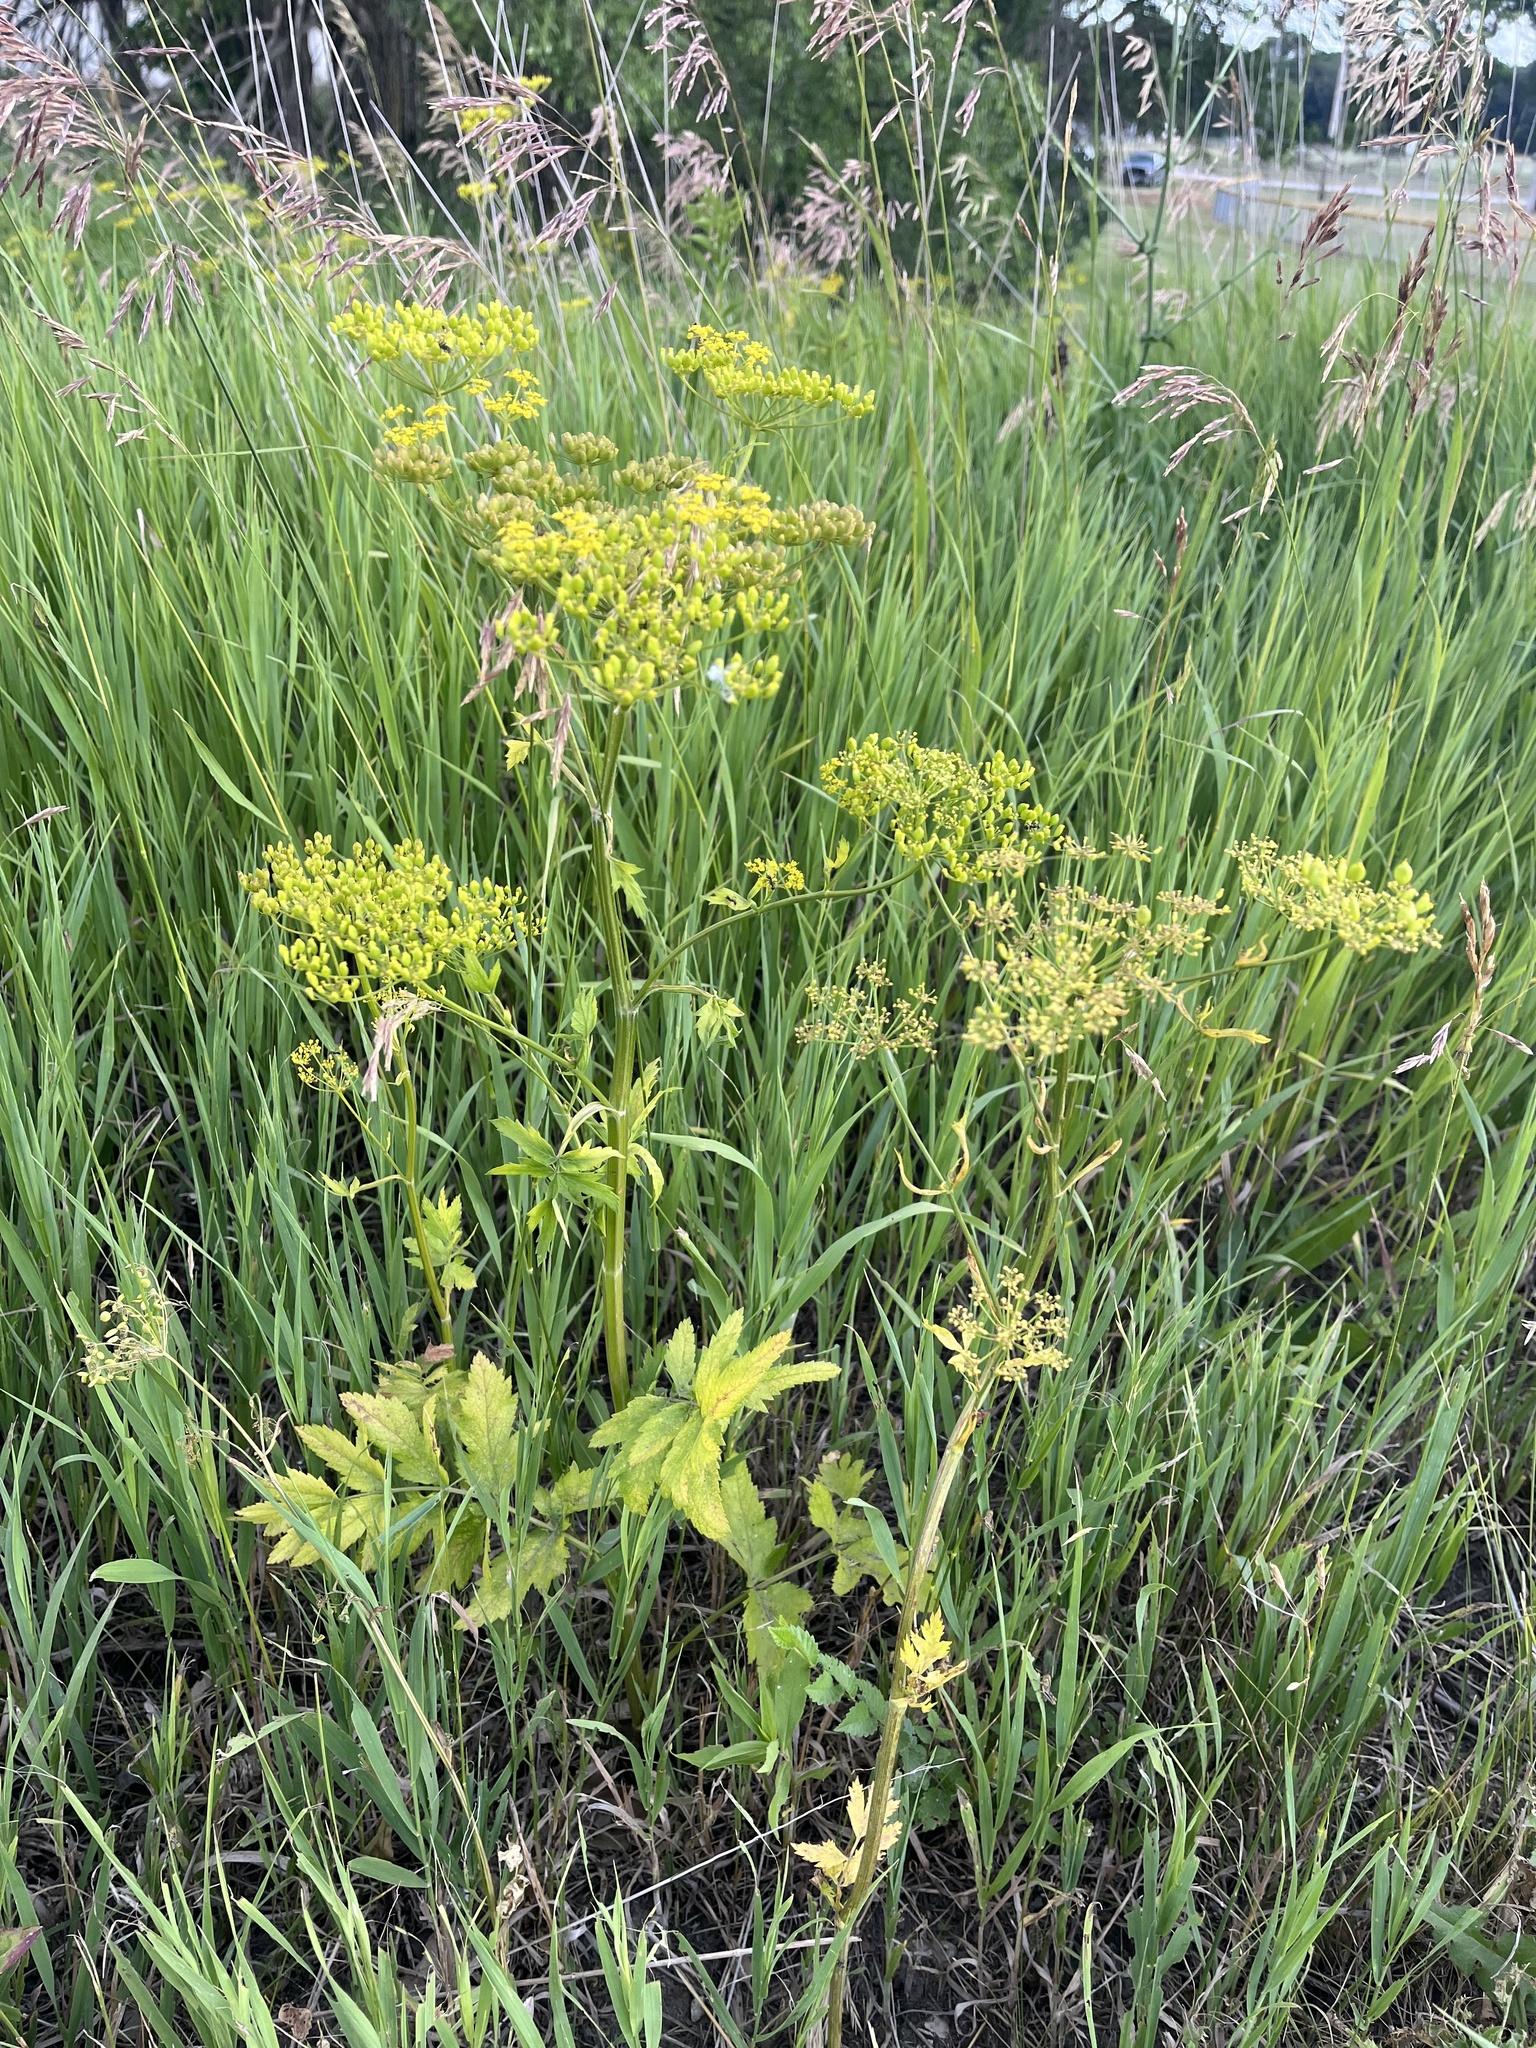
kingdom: Plantae
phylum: Tracheophyta
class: Magnoliopsida
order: Apiales
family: Apiaceae
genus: Pastinaca
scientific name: Pastinaca sativa
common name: Wild parsnip
